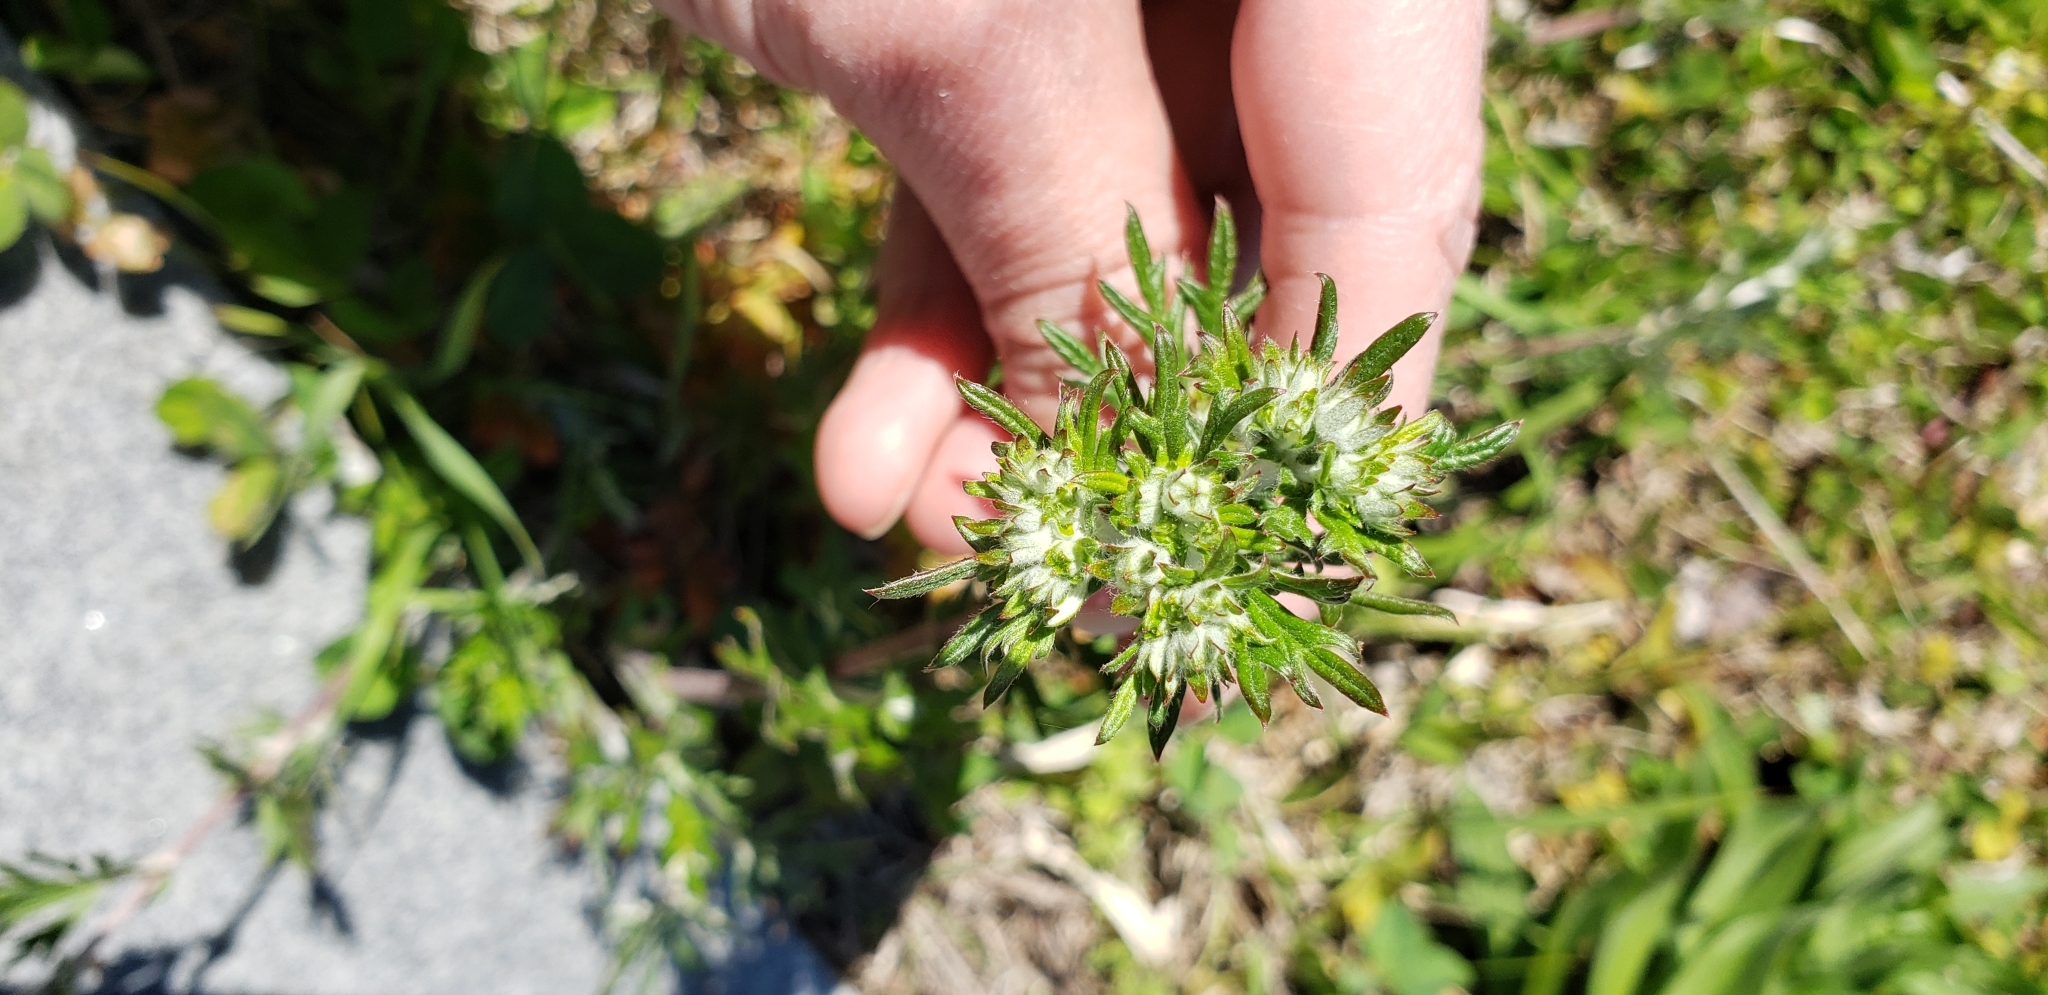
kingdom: Plantae
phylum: Tracheophyta
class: Magnoliopsida
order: Rosales
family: Rosaceae
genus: Potentilla
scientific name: Potentilla argentea
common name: Hoary cinquefoil
